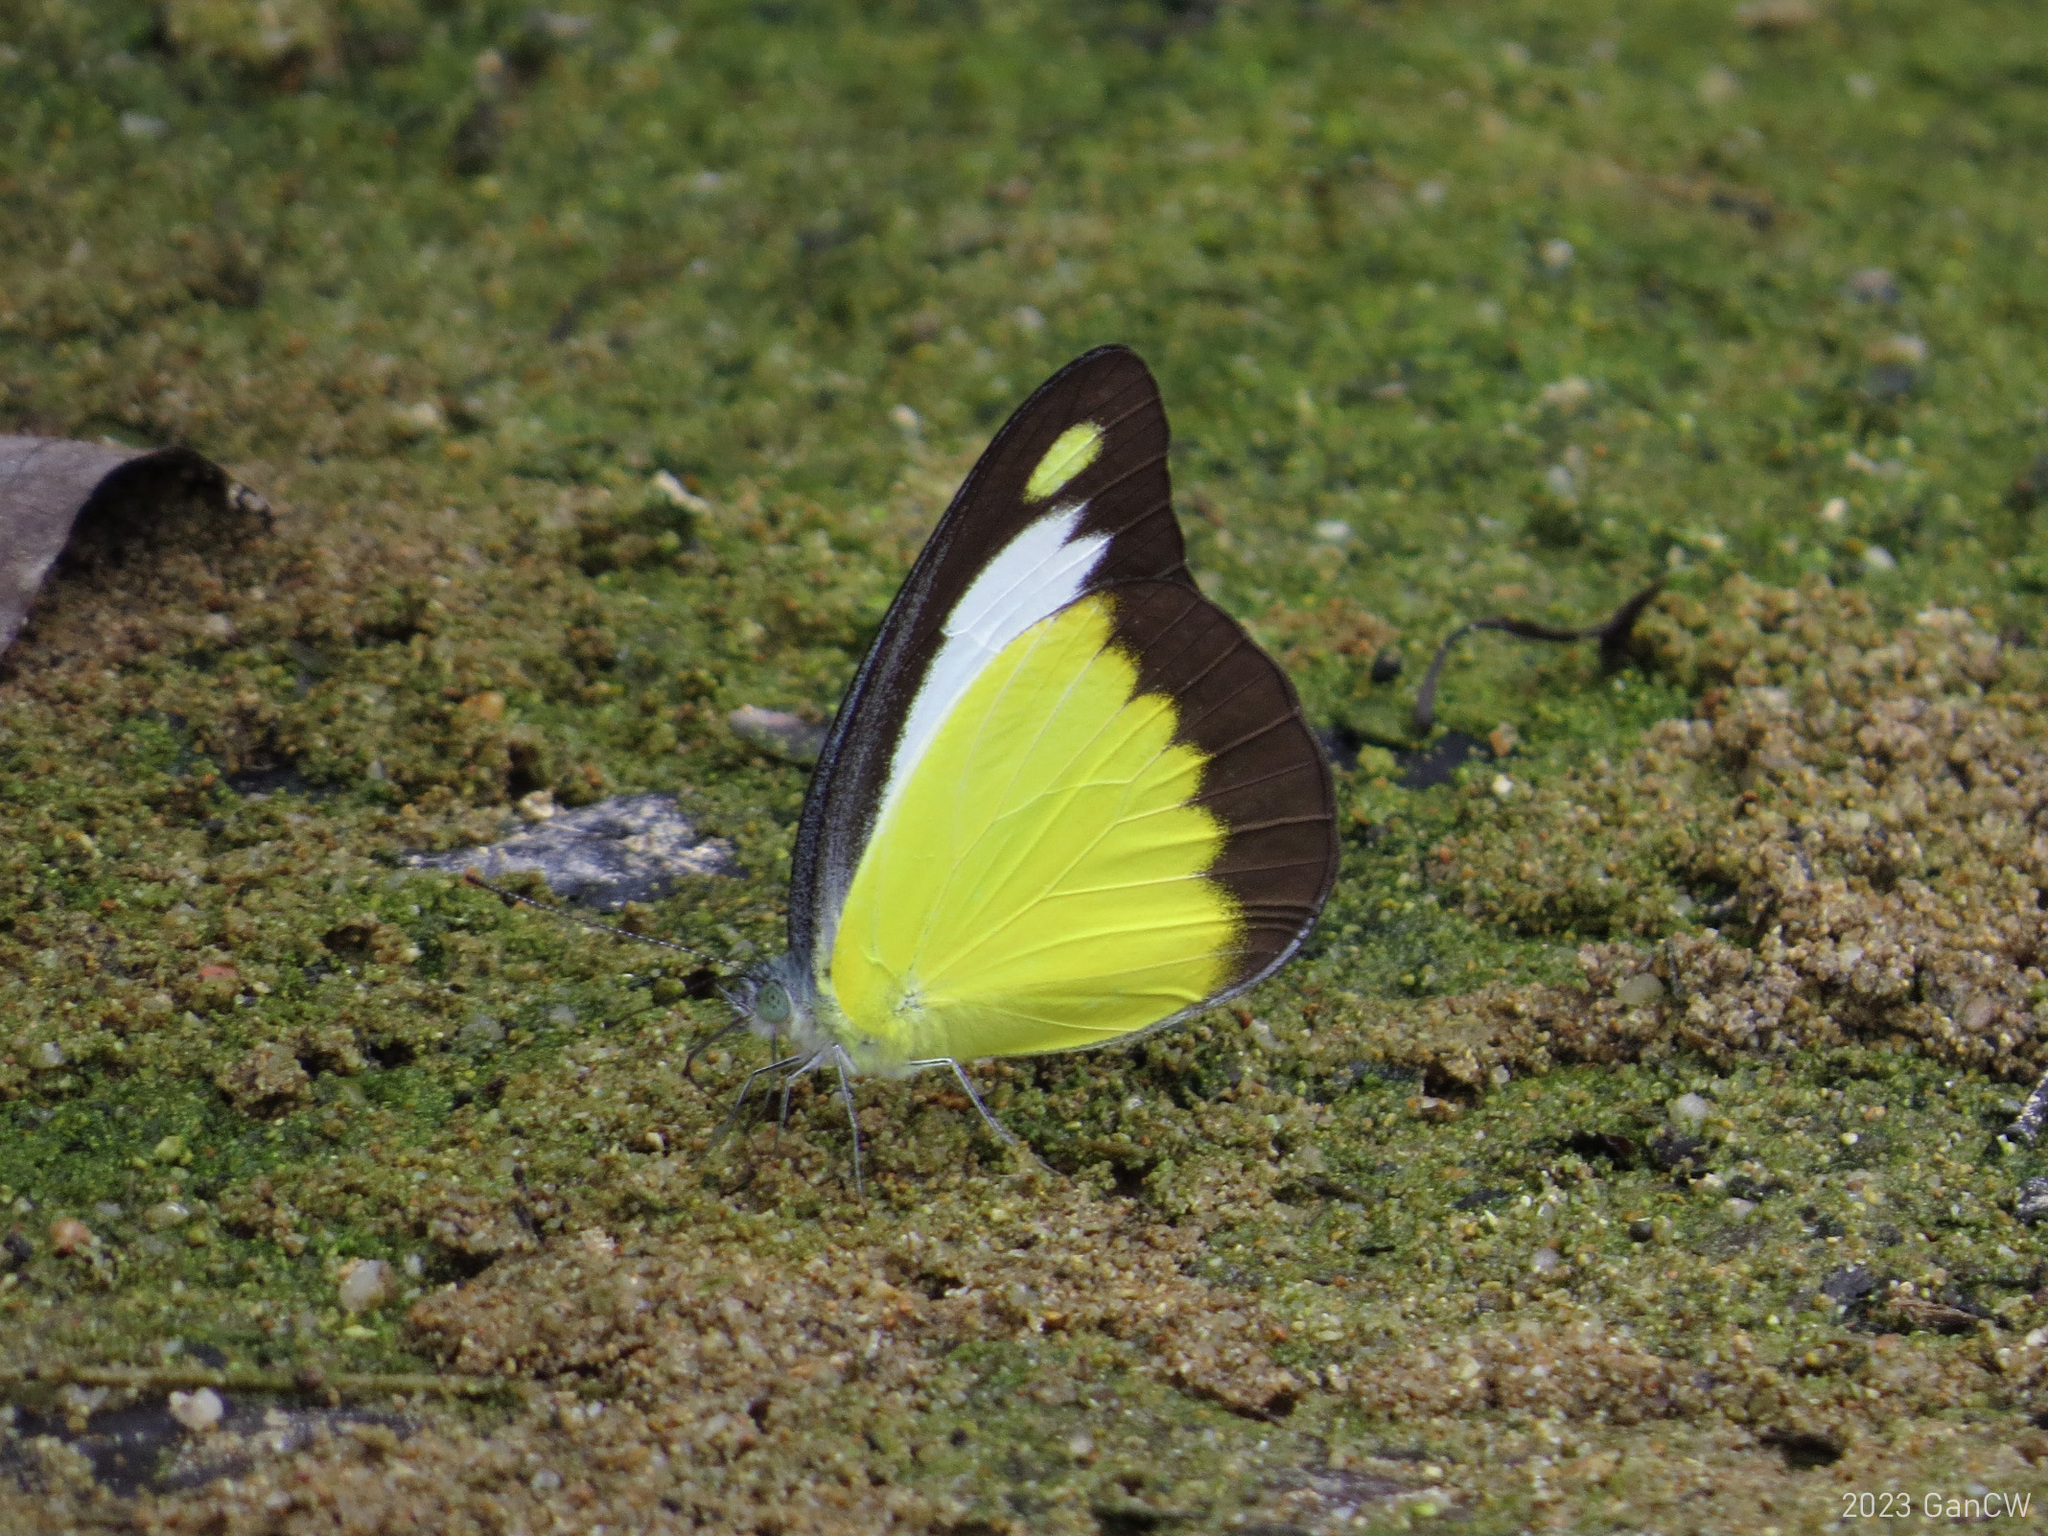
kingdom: Animalia
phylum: Arthropoda
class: Insecta
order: Lepidoptera
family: Pieridae
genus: Appias
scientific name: Appias lyncida
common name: Chocolate albatross
